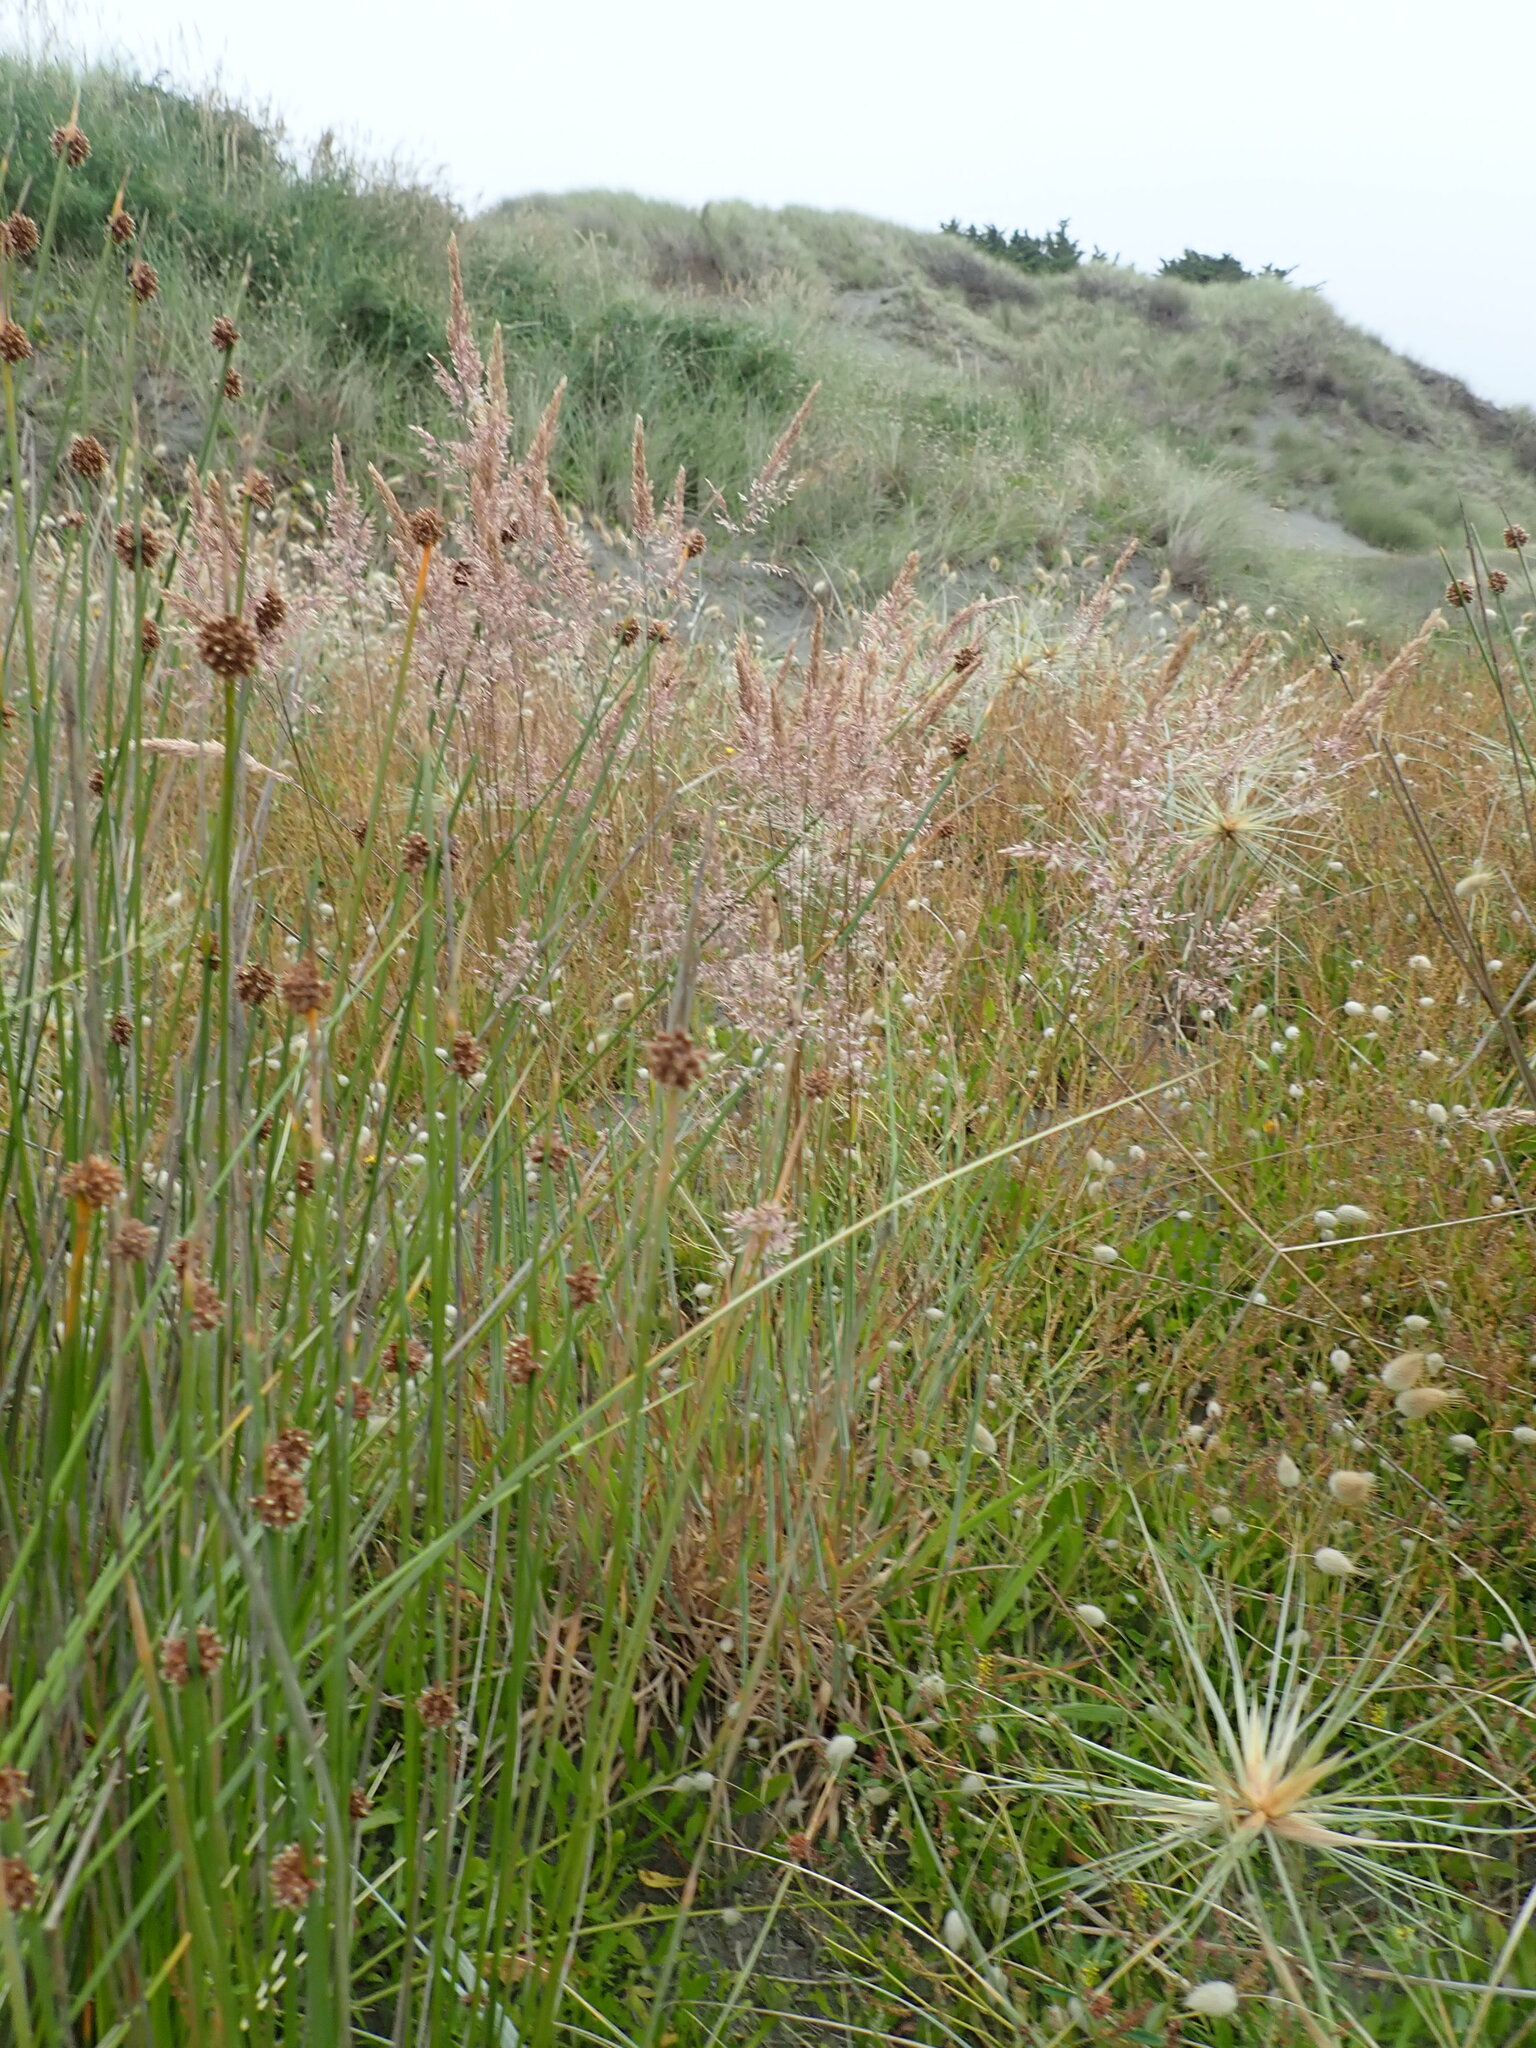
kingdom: Plantae
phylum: Tracheophyta
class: Liliopsida
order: Poales
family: Poaceae
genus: Holcus
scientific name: Holcus lanatus
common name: Yorkshire-fog
